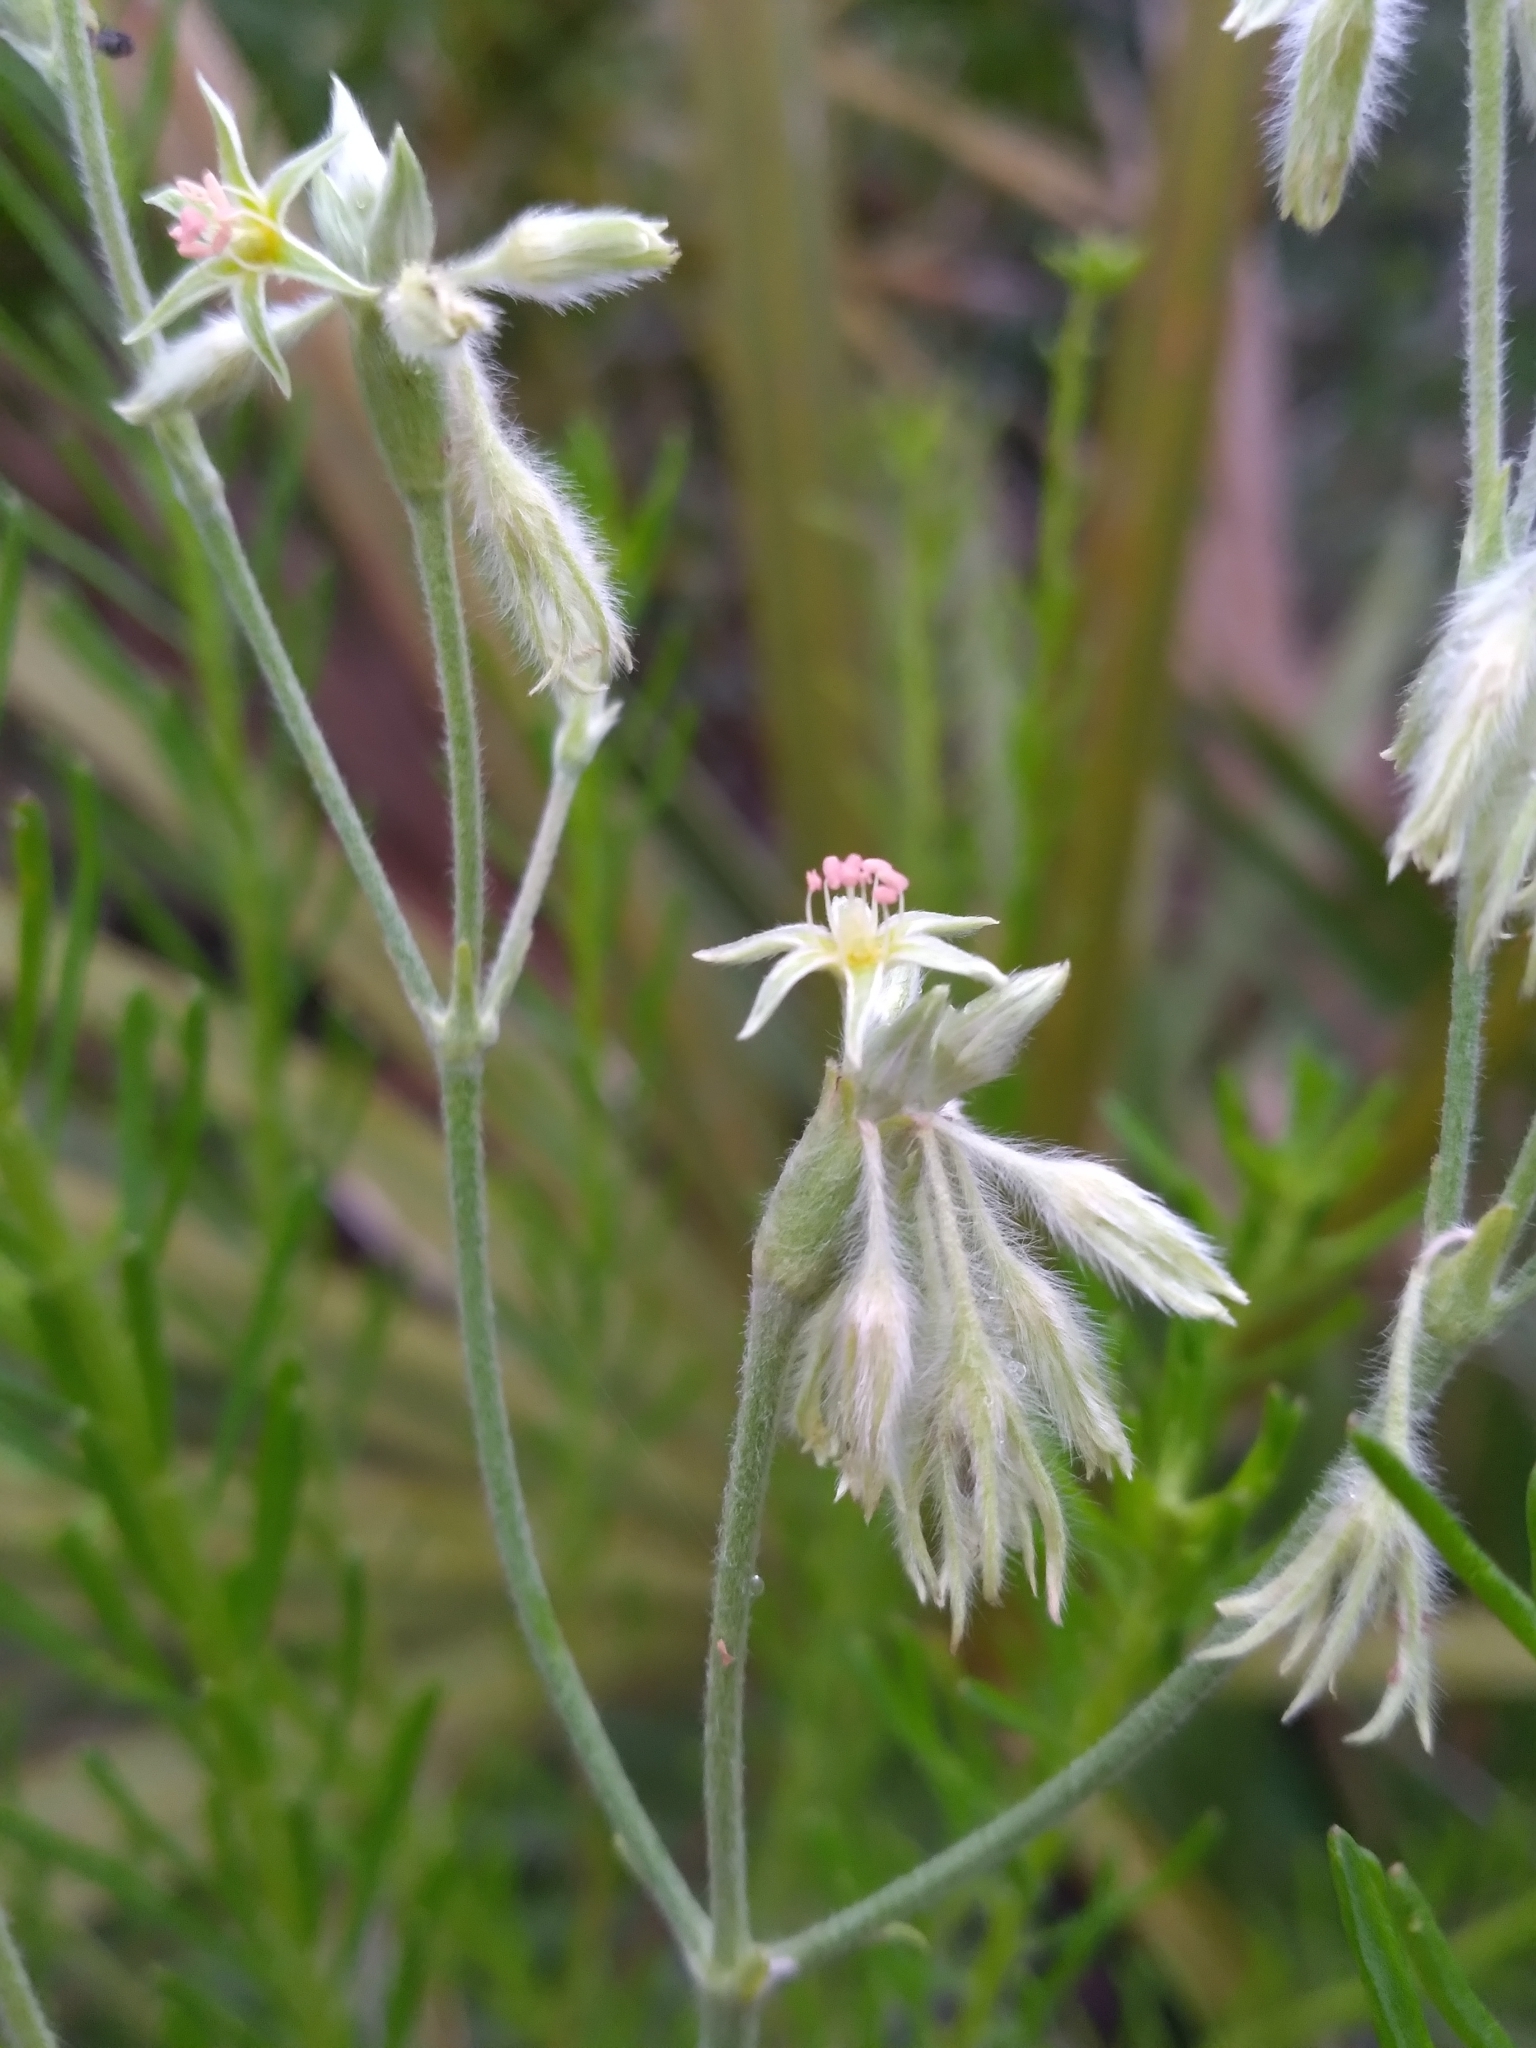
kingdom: Plantae
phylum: Tracheophyta
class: Magnoliopsida
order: Caryophyllales
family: Polygonaceae
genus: Eriogonum
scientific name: Eriogonum longifolium
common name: Longleaf wild buckwheat
